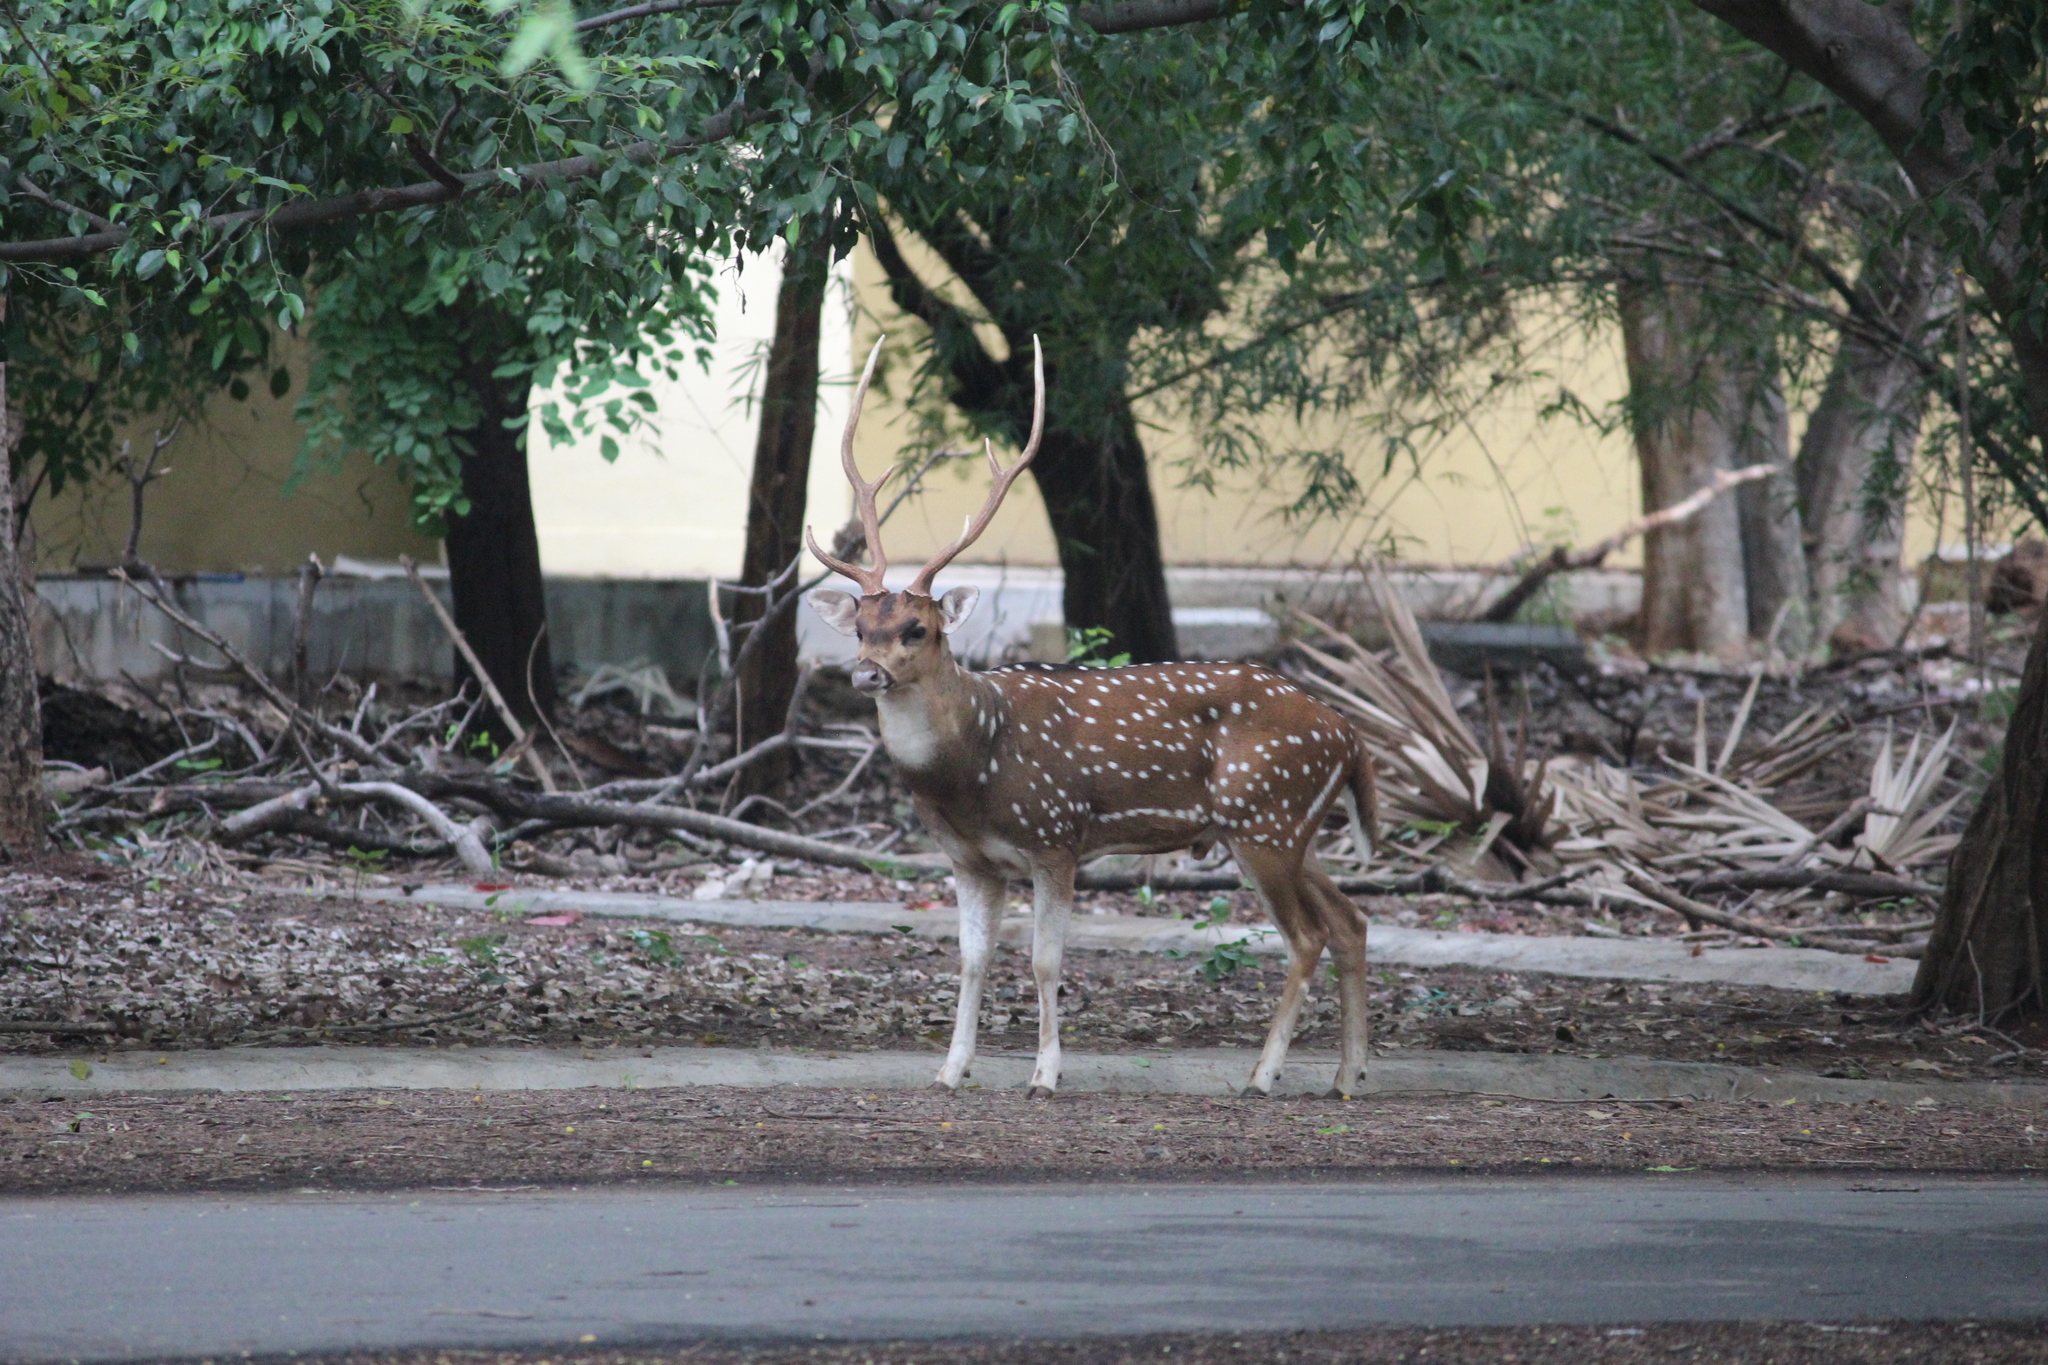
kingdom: Animalia
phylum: Chordata
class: Mammalia
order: Artiodactyla
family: Cervidae
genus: Axis
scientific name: Axis axis
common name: Chital
